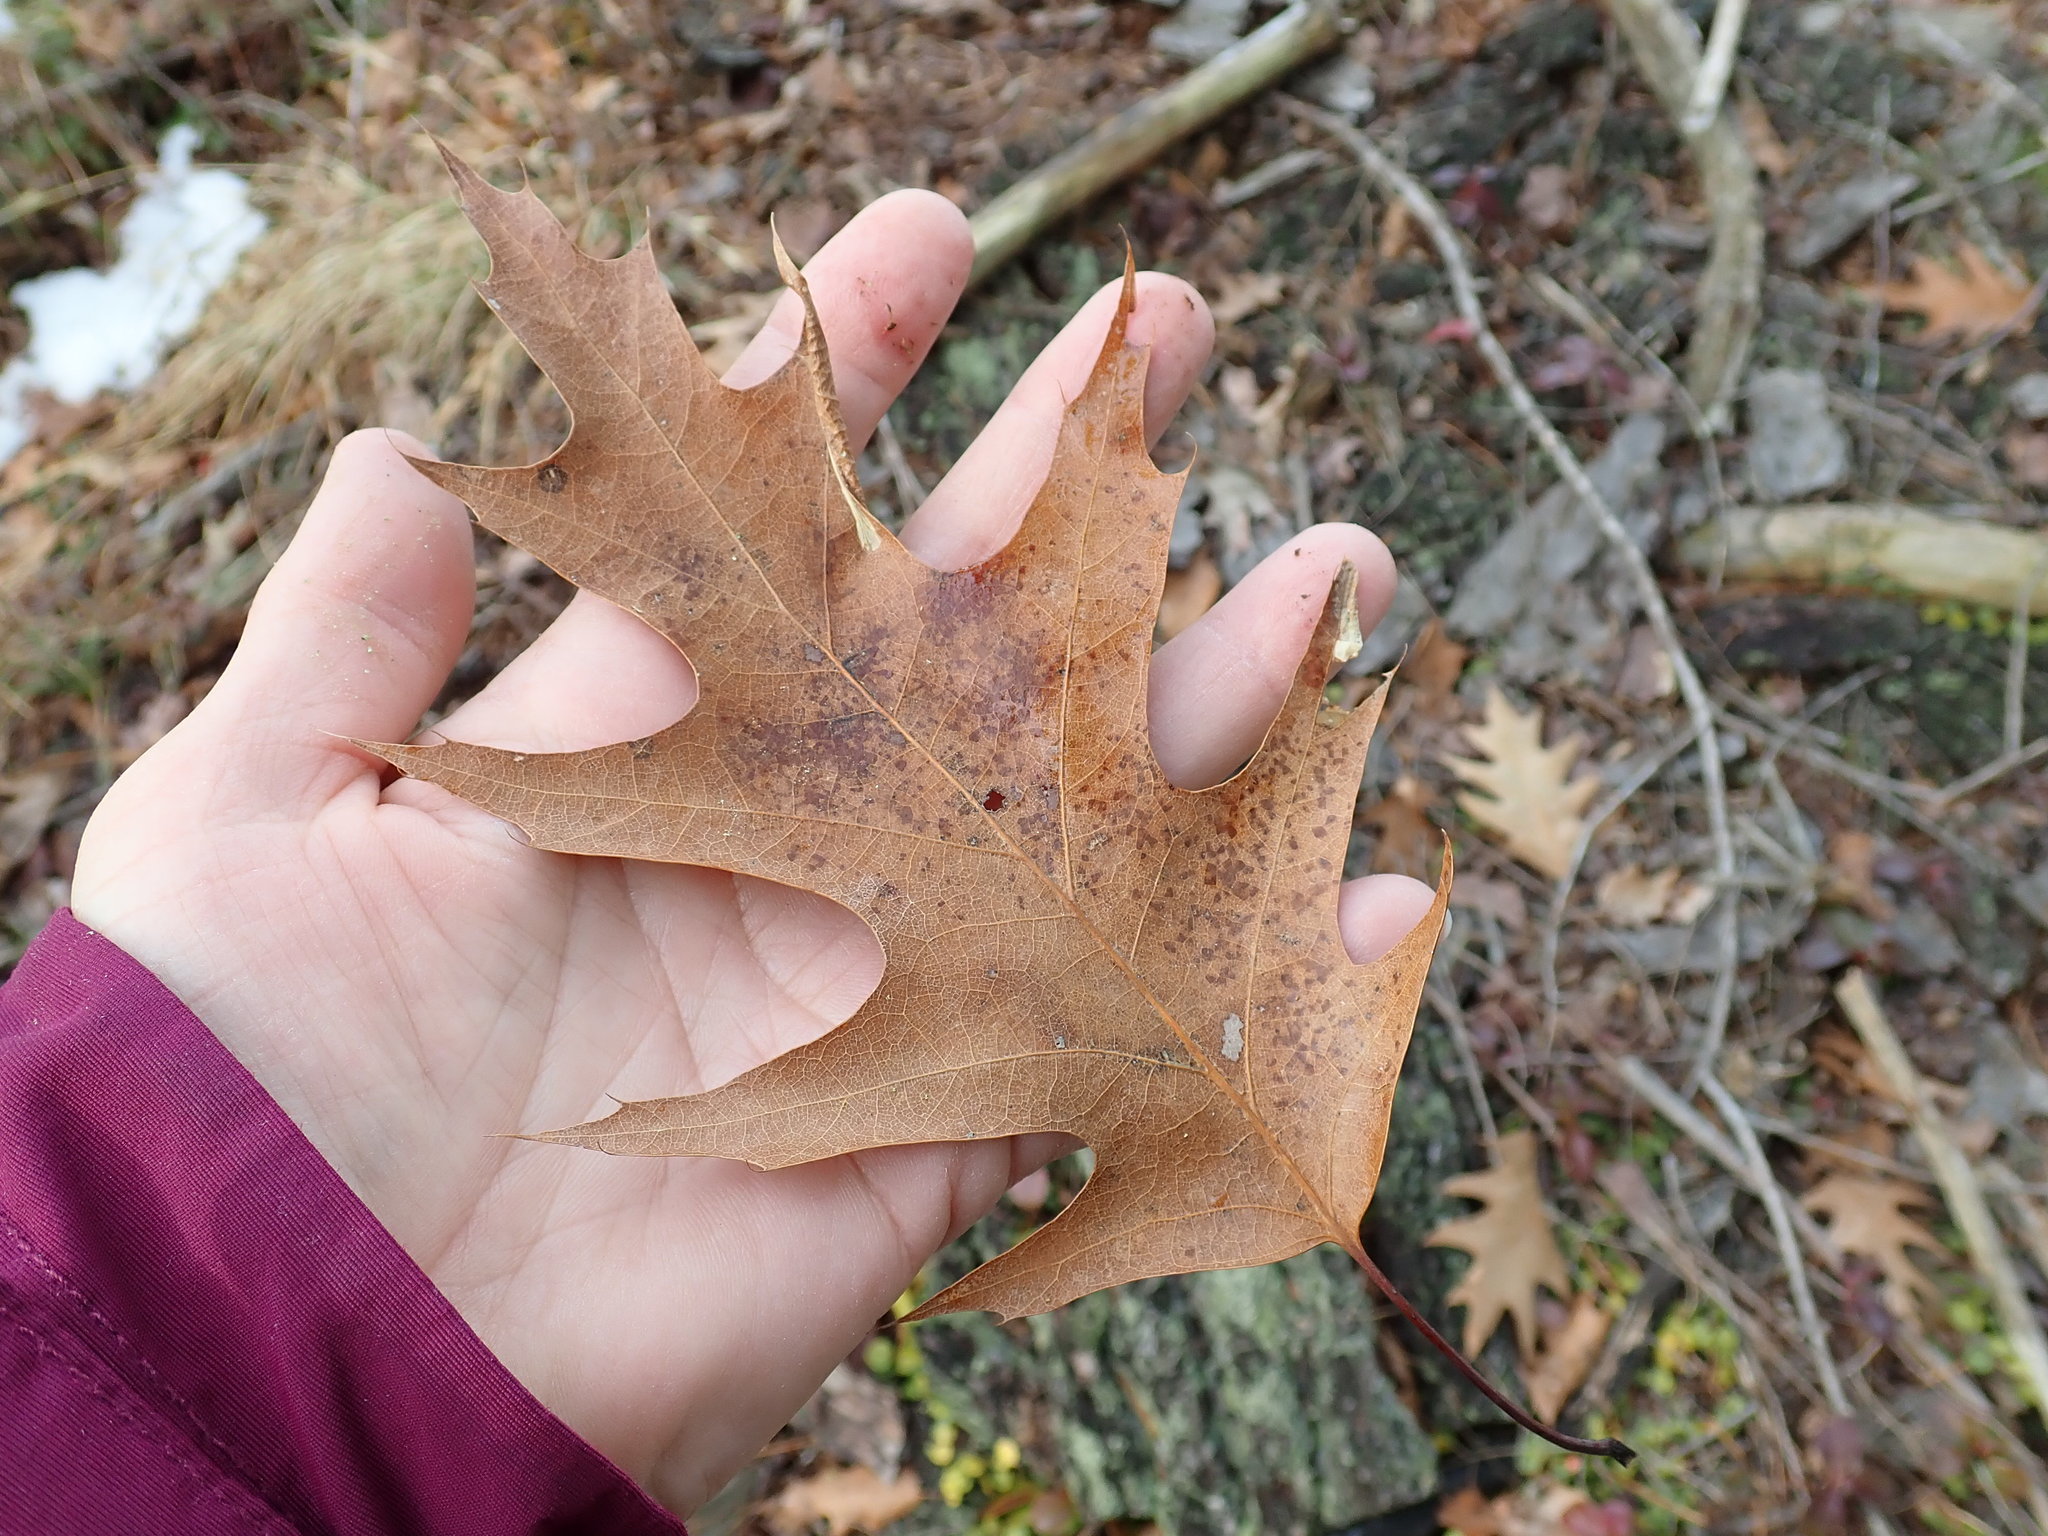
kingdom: Plantae
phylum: Tracheophyta
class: Magnoliopsida
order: Fagales
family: Fagaceae
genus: Quercus
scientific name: Quercus rubra
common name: Red oak
